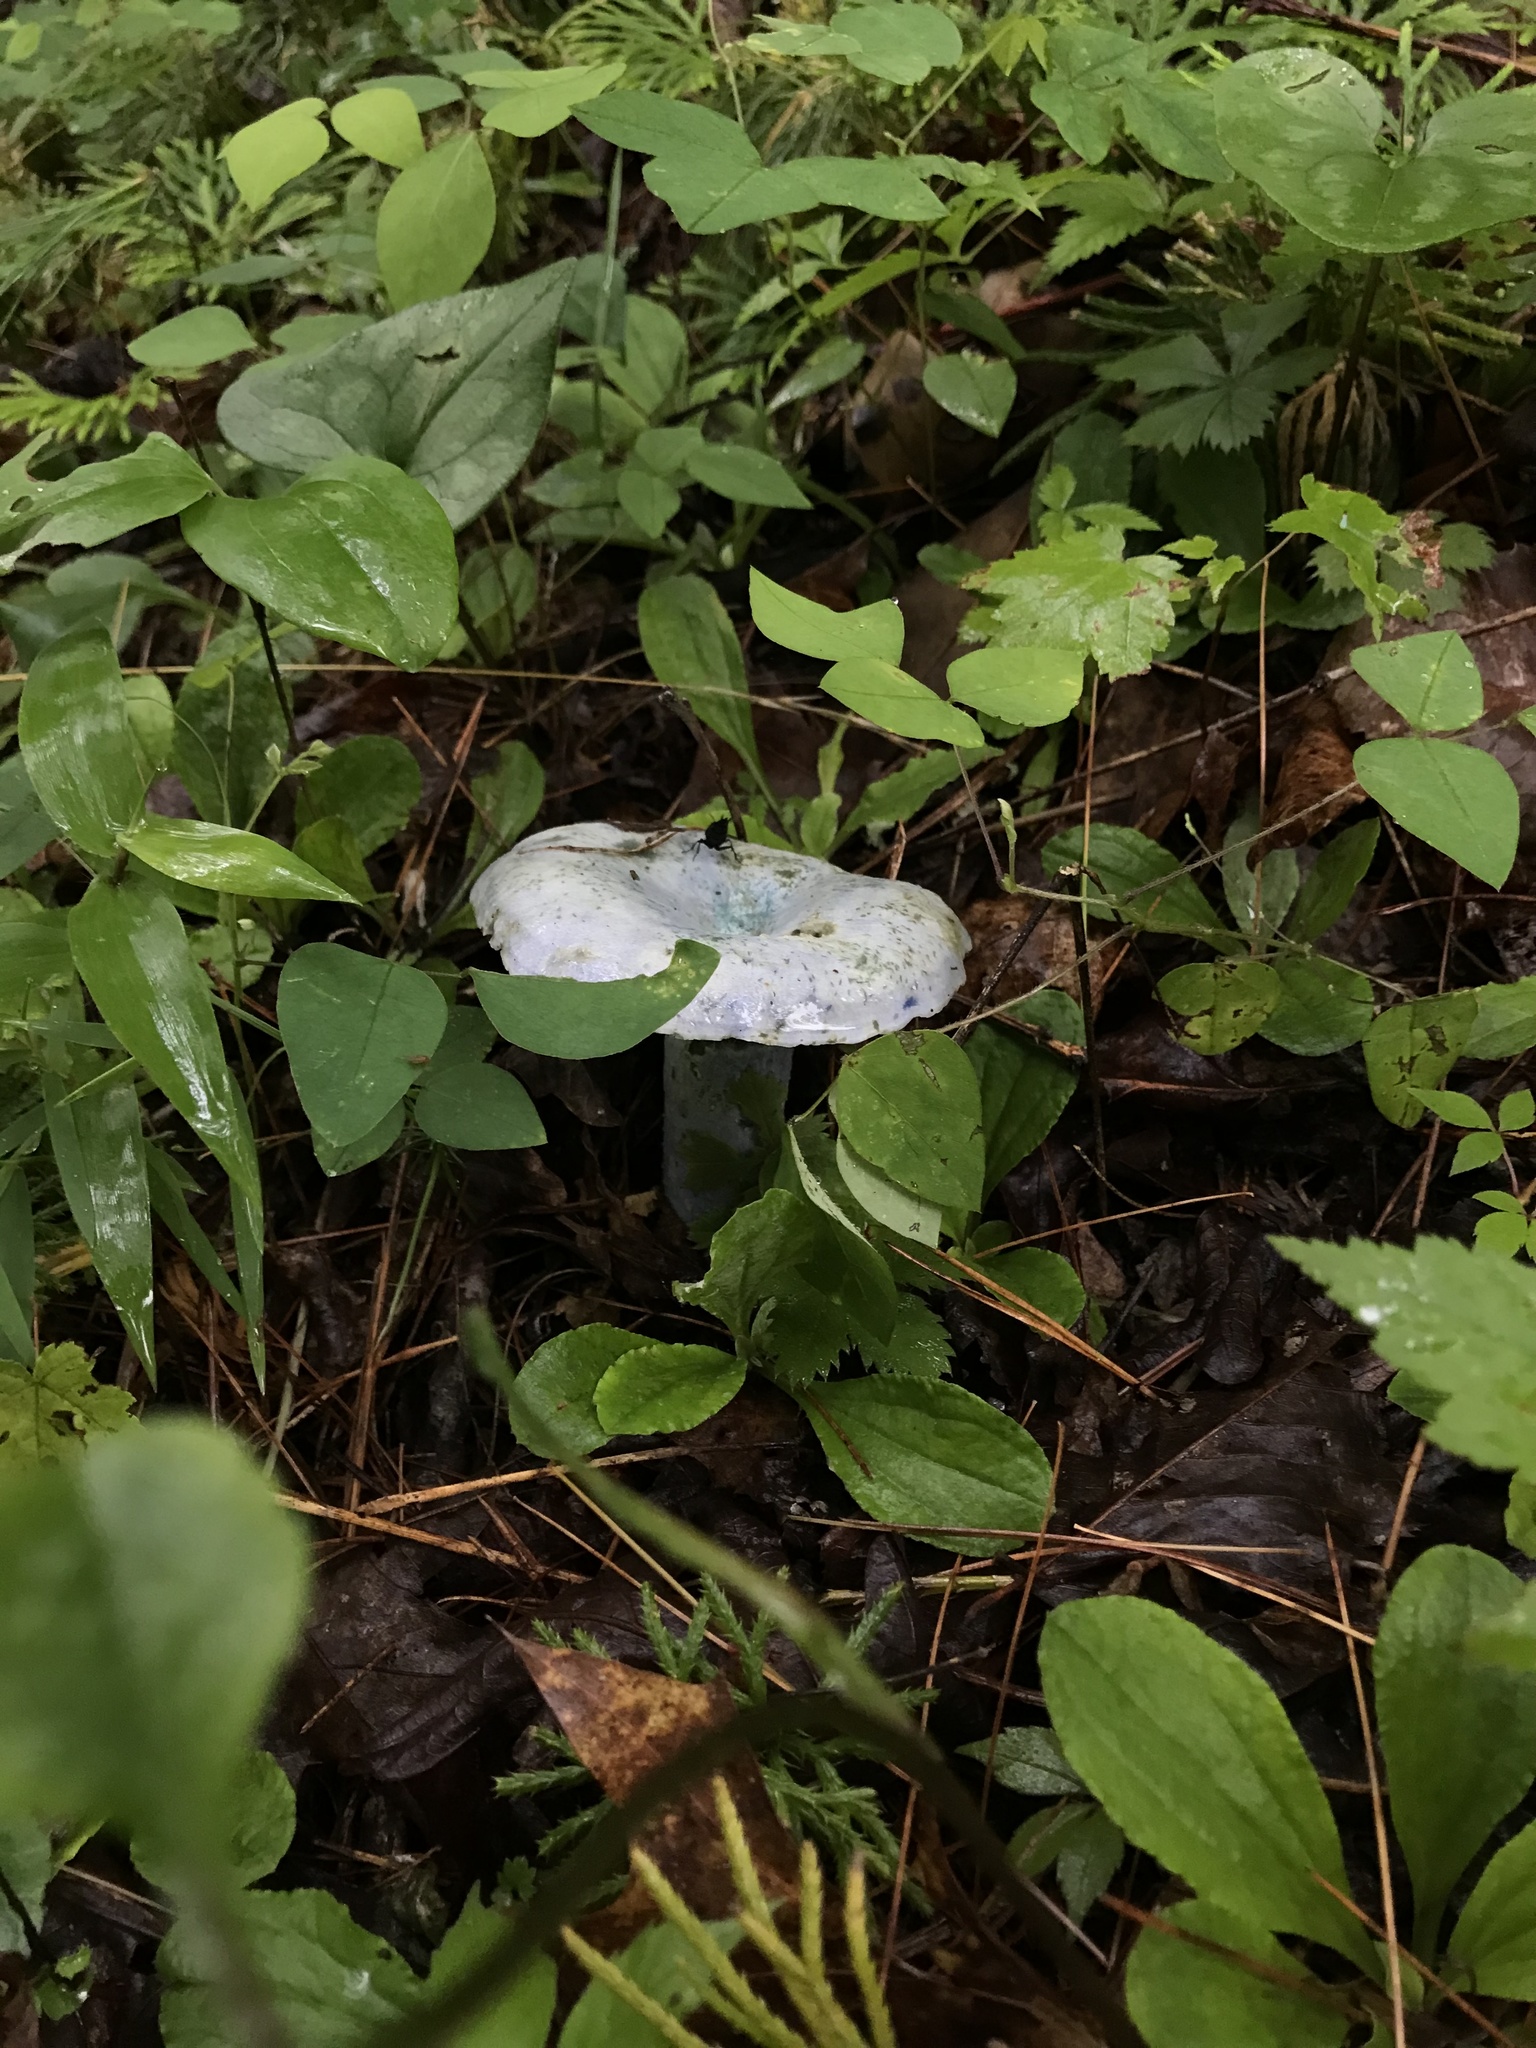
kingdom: Fungi
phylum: Basidiomycota
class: Agaricomycetes
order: Russulales
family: Russulaceae
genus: Lactarius
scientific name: Lactarius indigo
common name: Indigo milk cap
